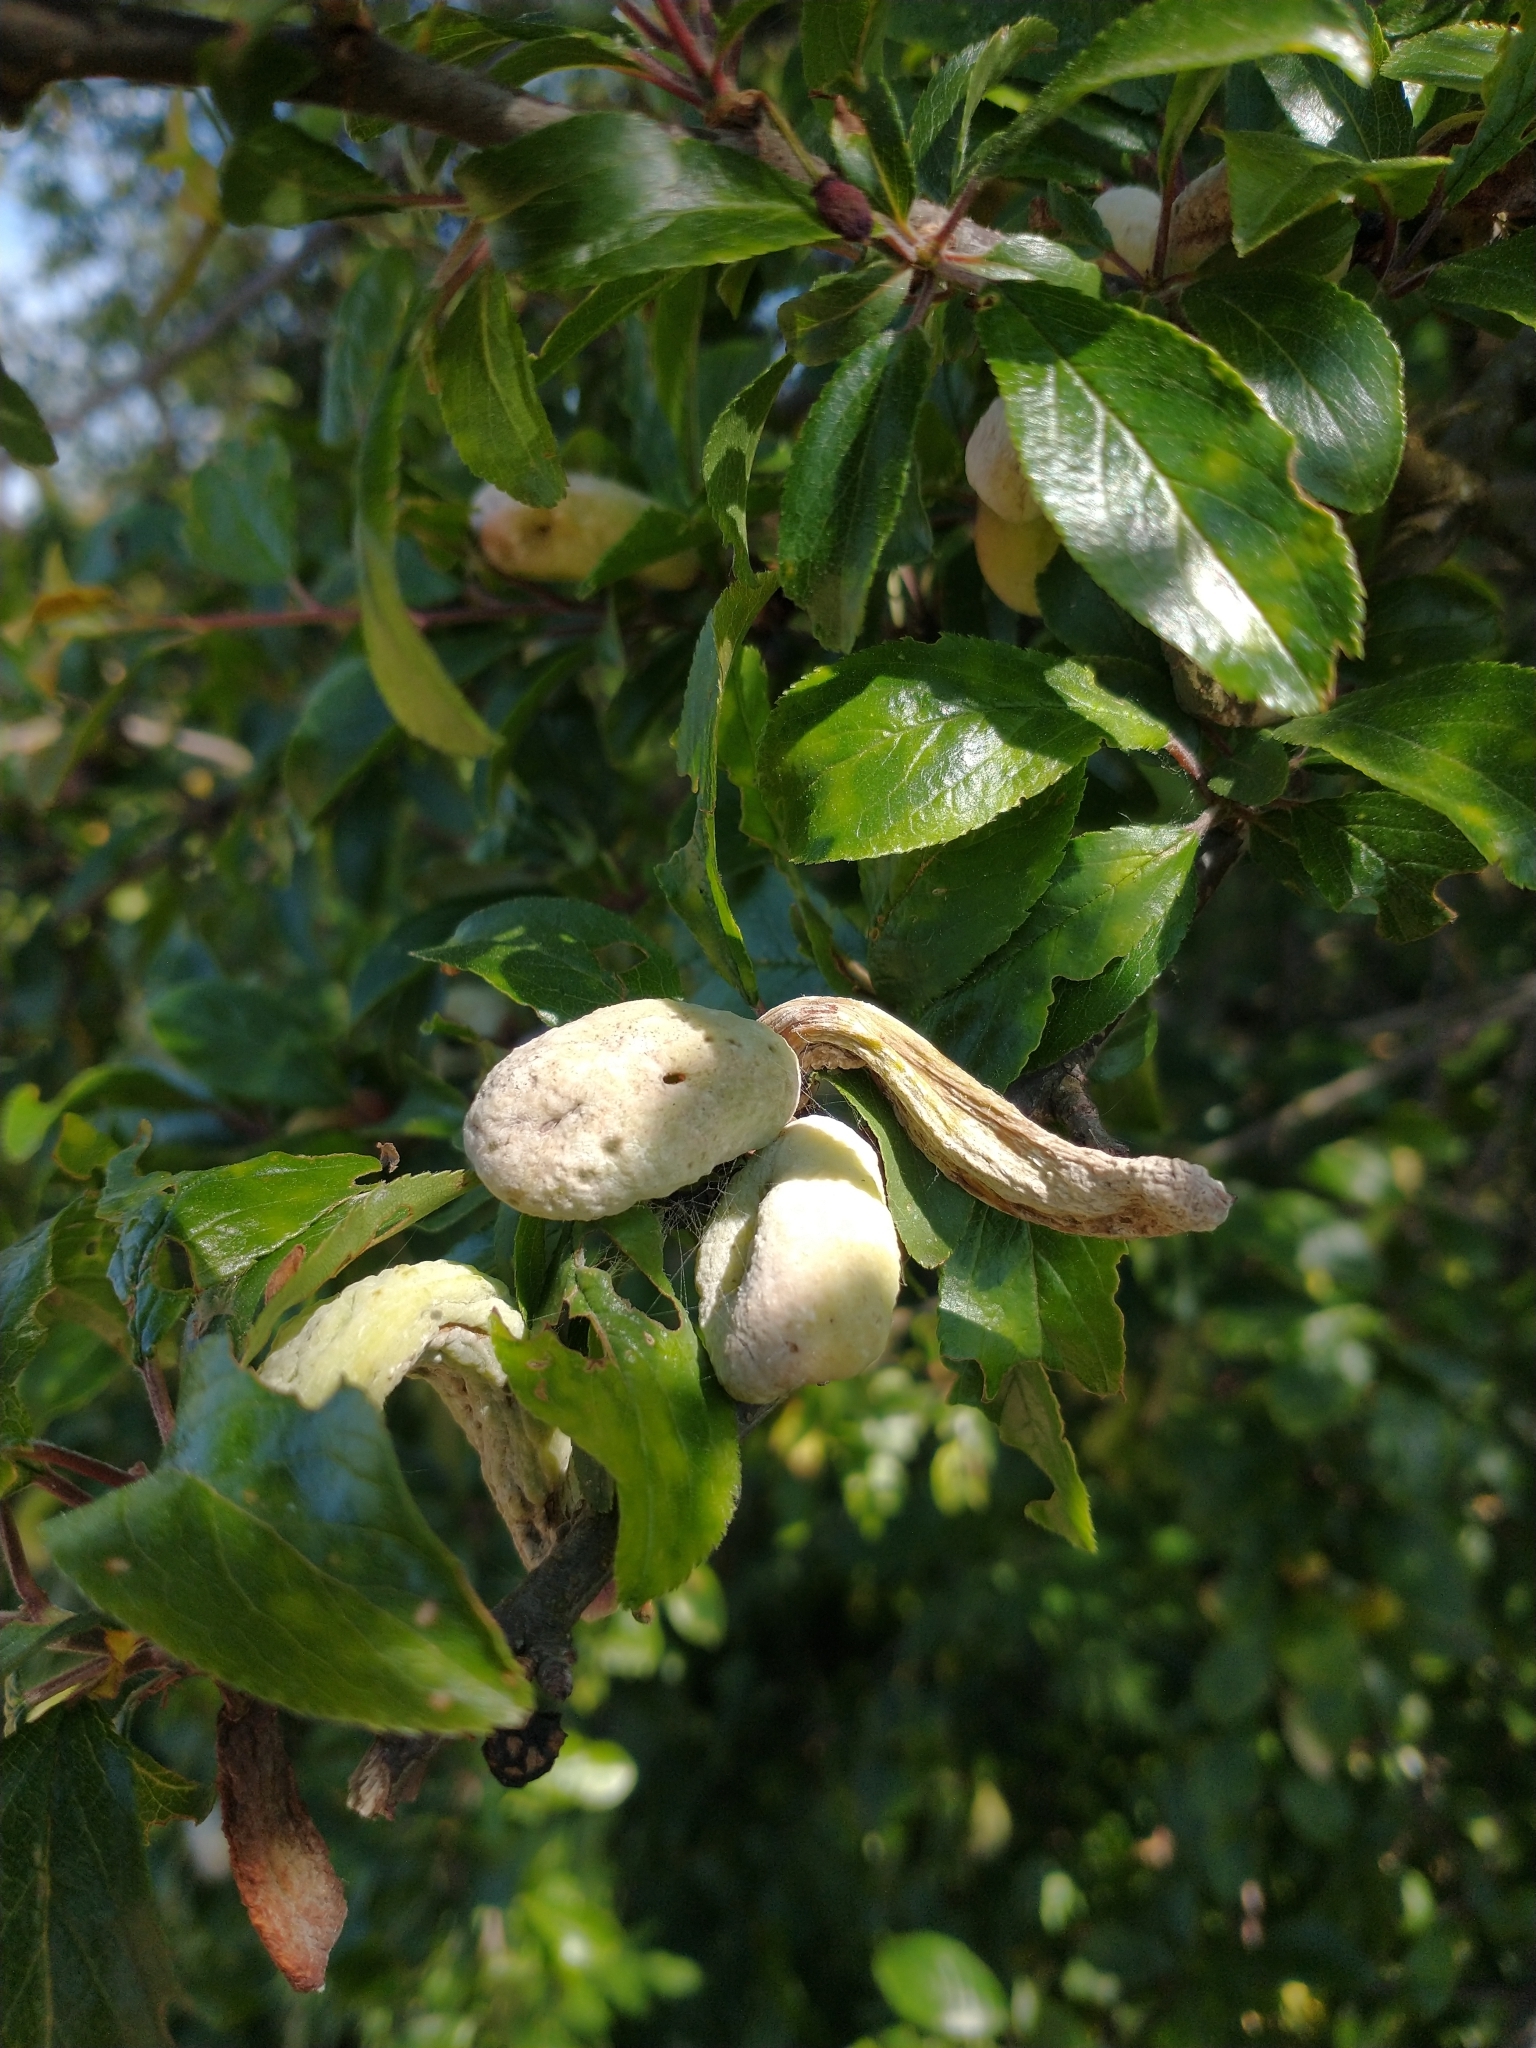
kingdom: Fungi
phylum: Ascomycota
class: Taphrinomycetes
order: Taphrinales
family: Taphrinaceae
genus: Taphrina
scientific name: Taphrina pruni
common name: Pocket plum
